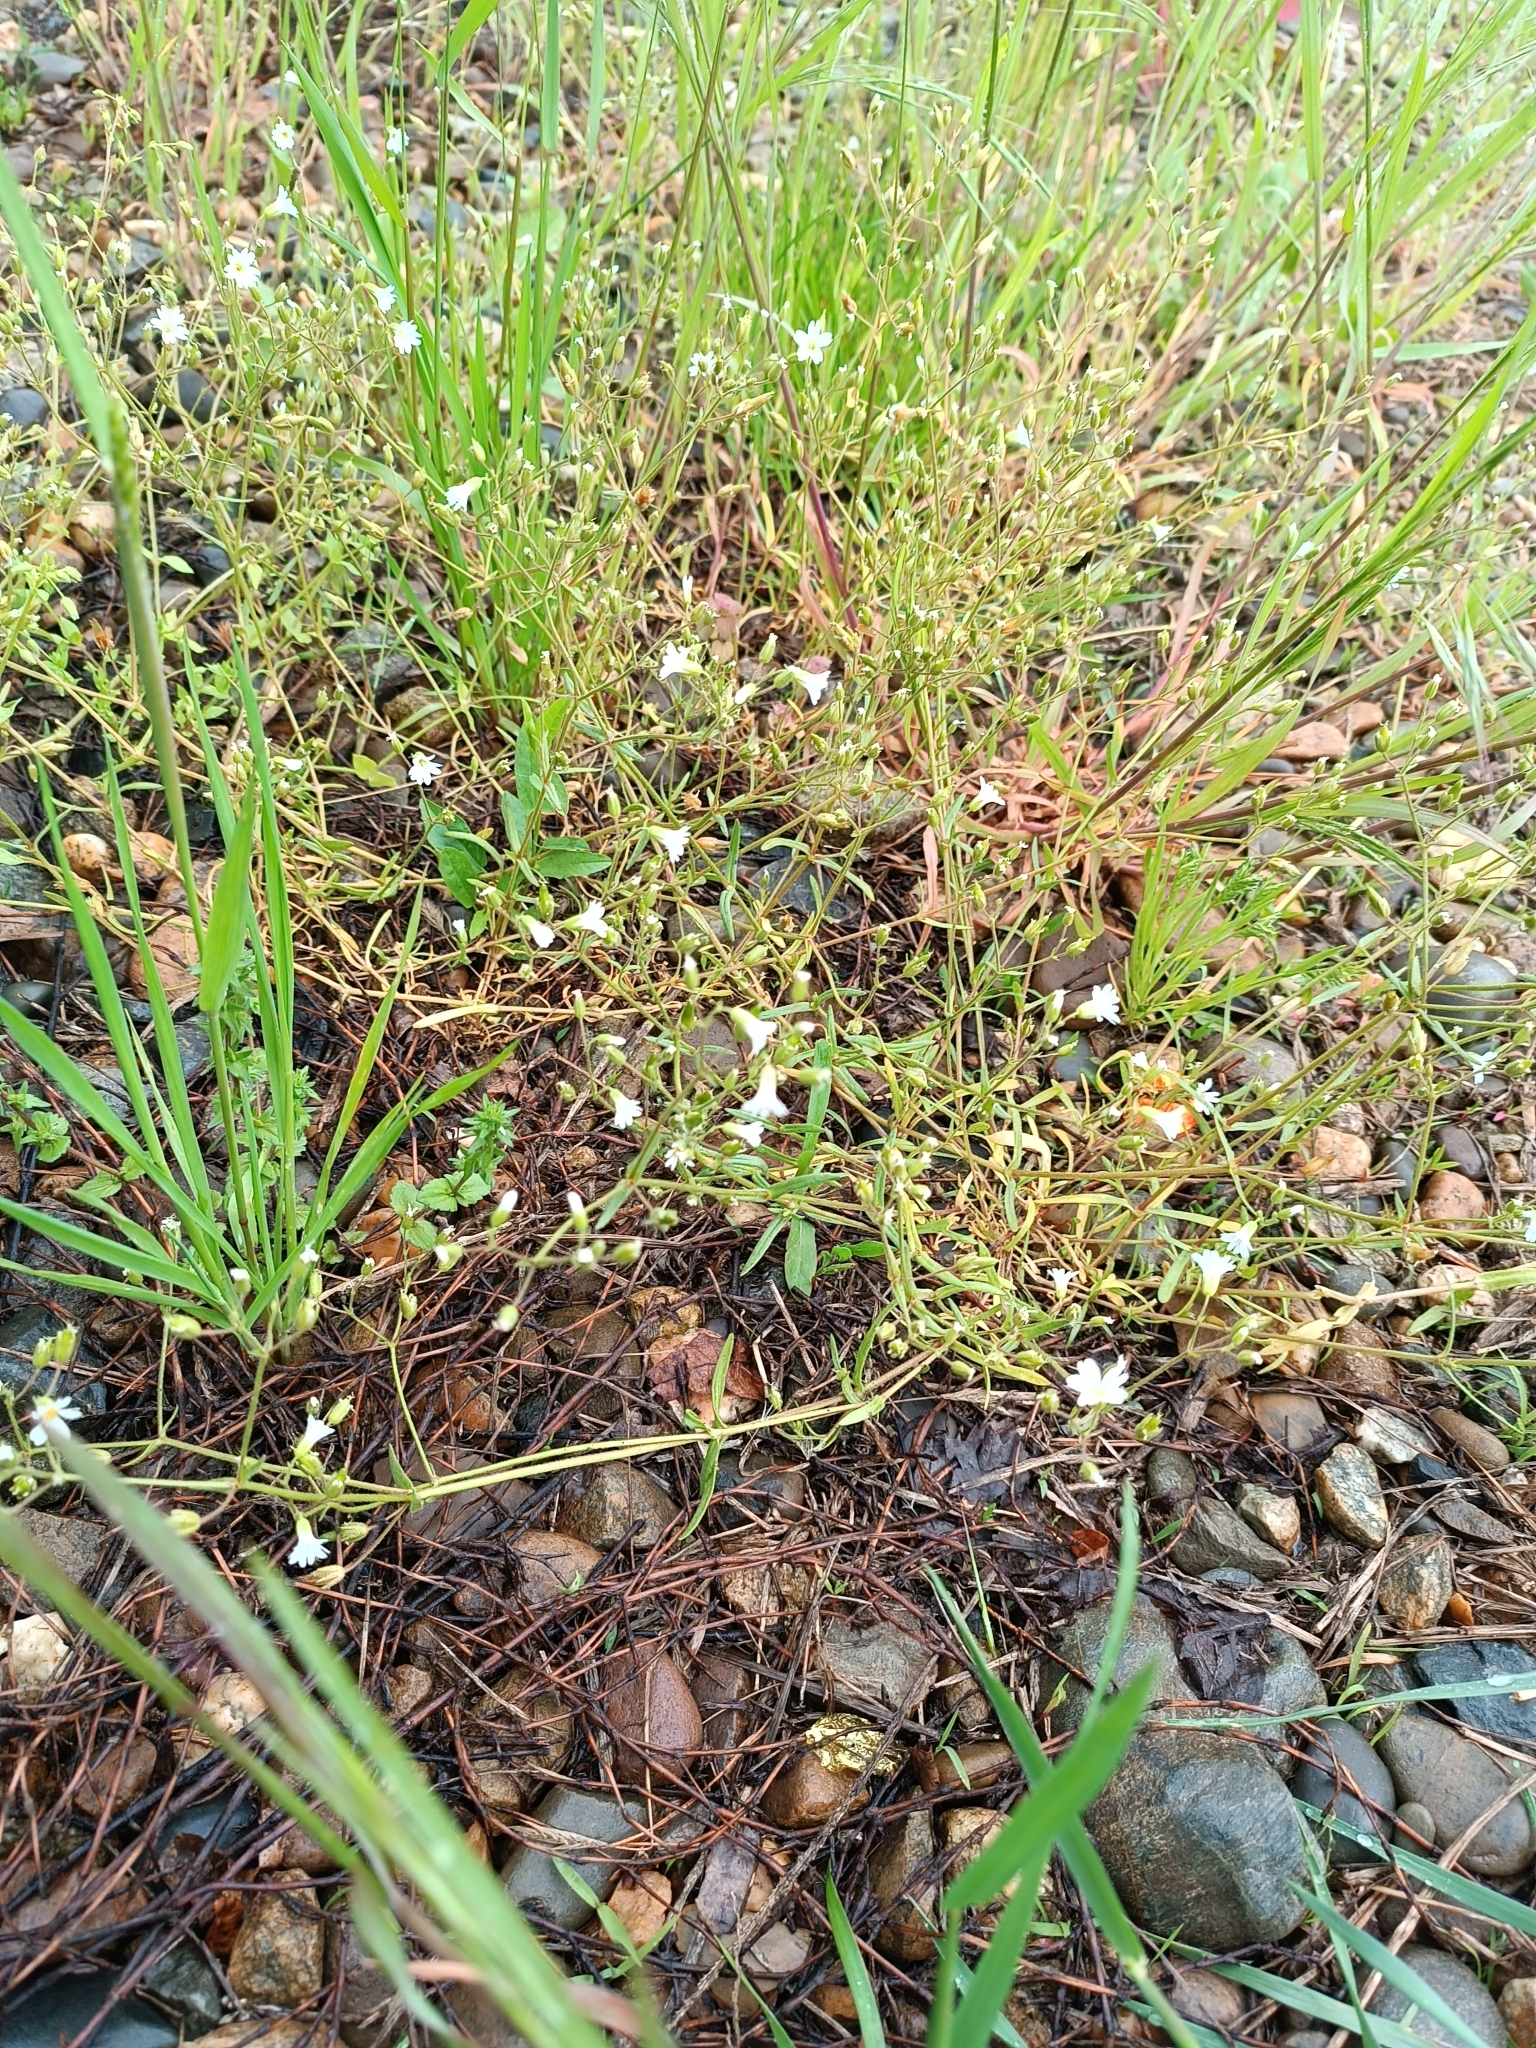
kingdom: Plantae
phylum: Tracheophyta
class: Magnoliopsida
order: Caryophyllales
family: Caryophyllaceae
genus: Dichodon
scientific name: Dichodon viscidum
